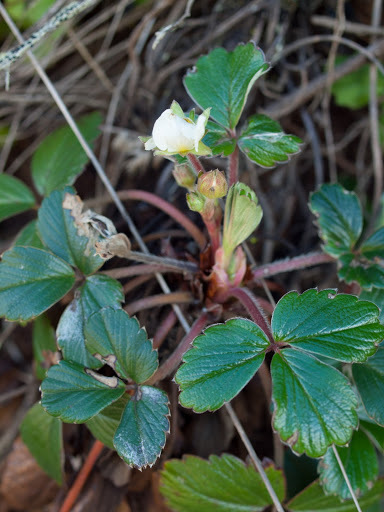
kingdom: Plantae
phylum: Tracheophyta
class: Magnoliopsida
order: Rosales
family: Rosaceae
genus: Fragaria
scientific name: Fragaria chiloensis
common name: Beach strawberry
